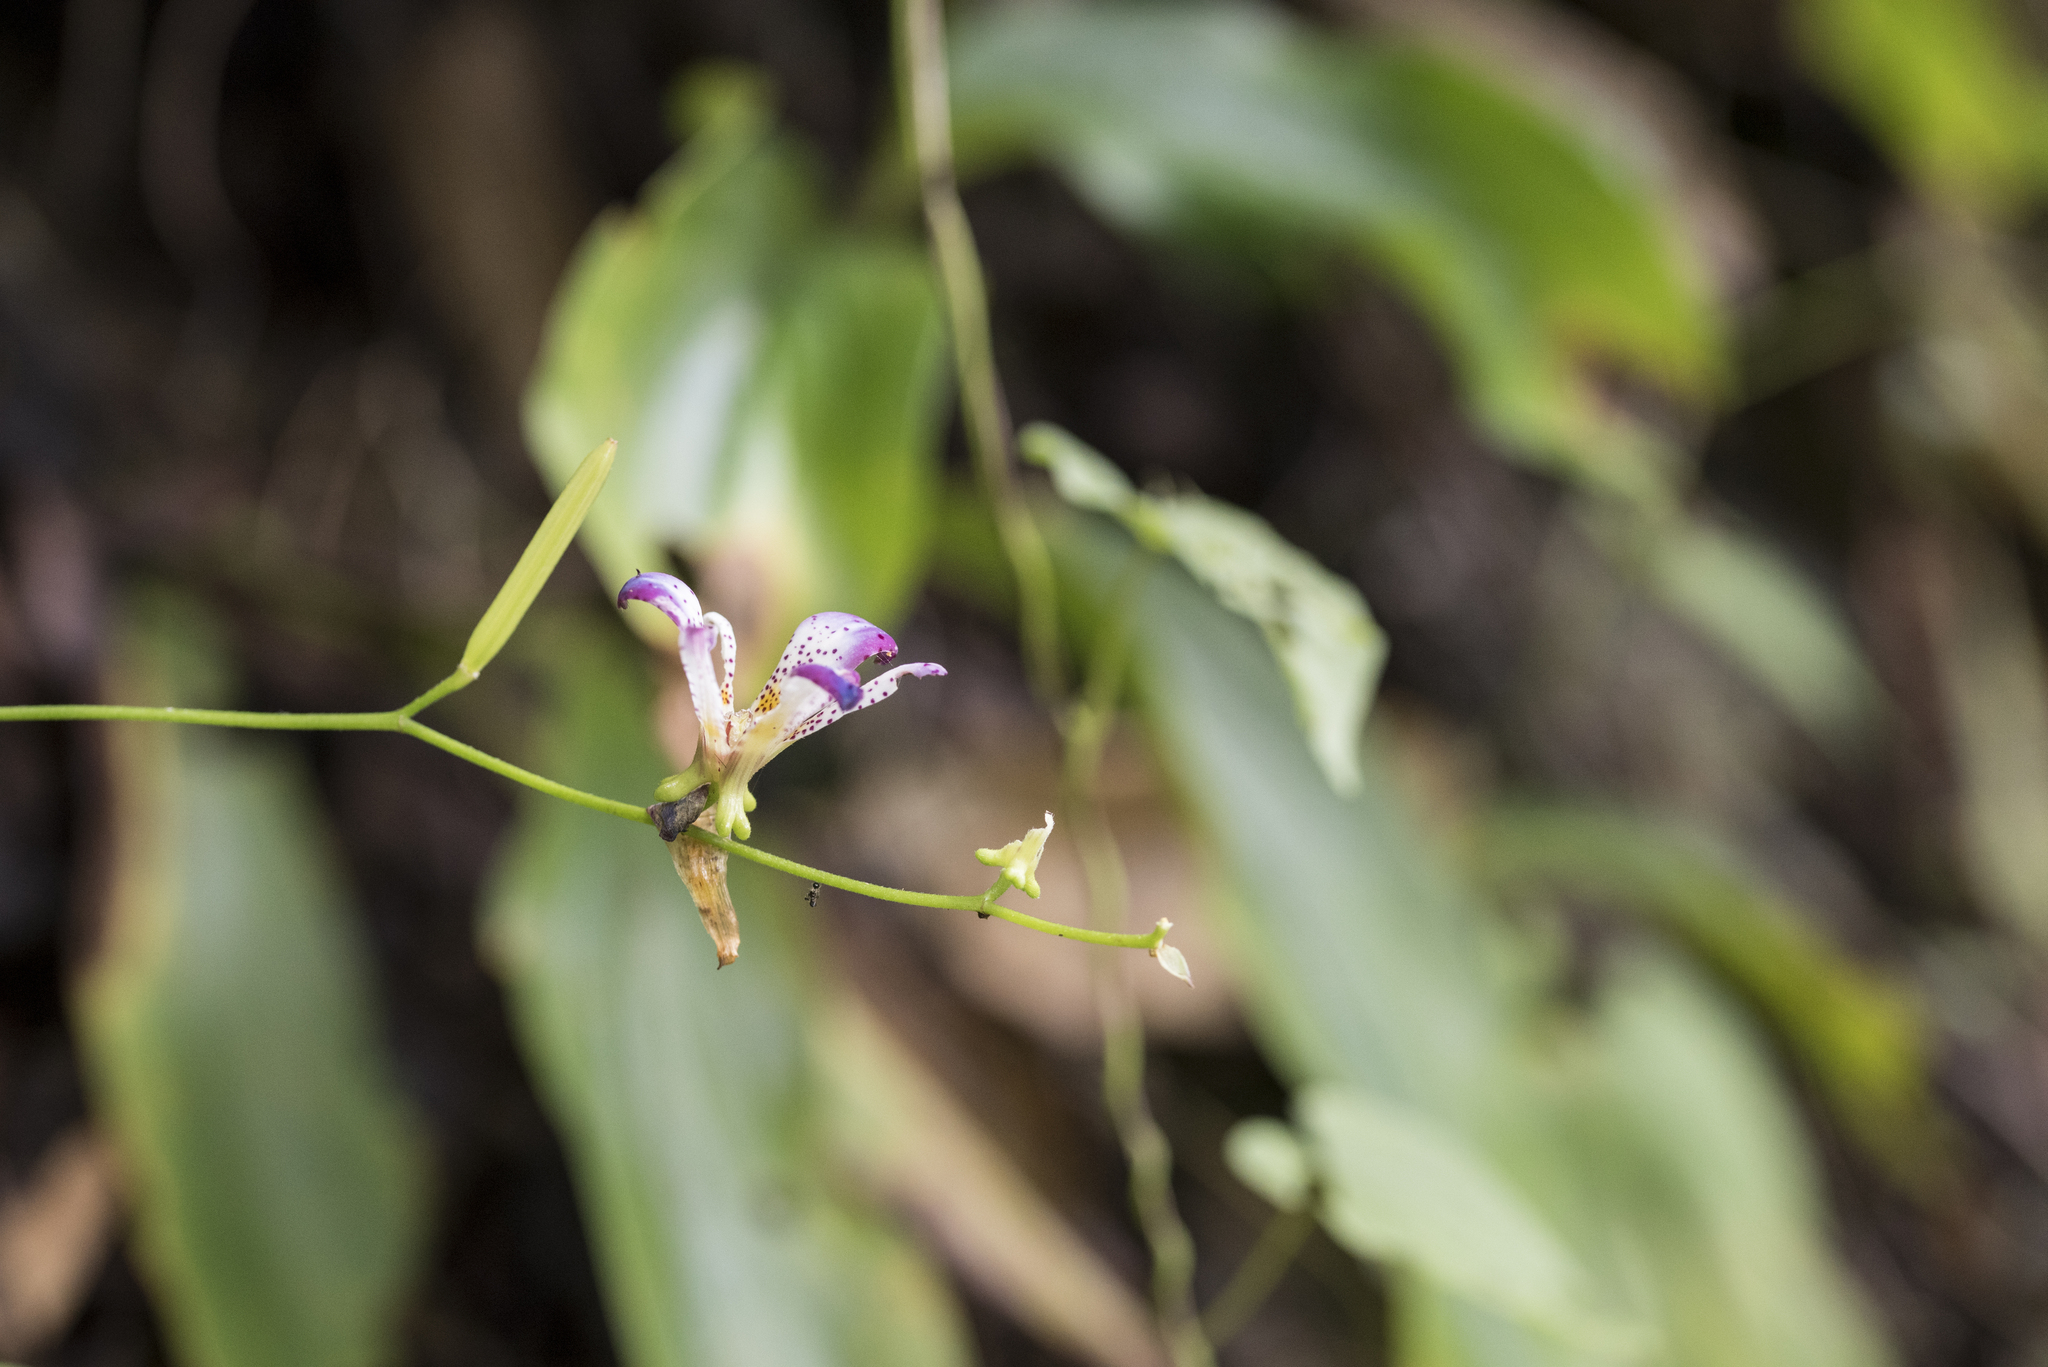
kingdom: Plantae
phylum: Tracheophyta
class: Liliopsida
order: Liliales
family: Liliaceae
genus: Tricyrtis
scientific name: Tricyrtis lasiocarpa
